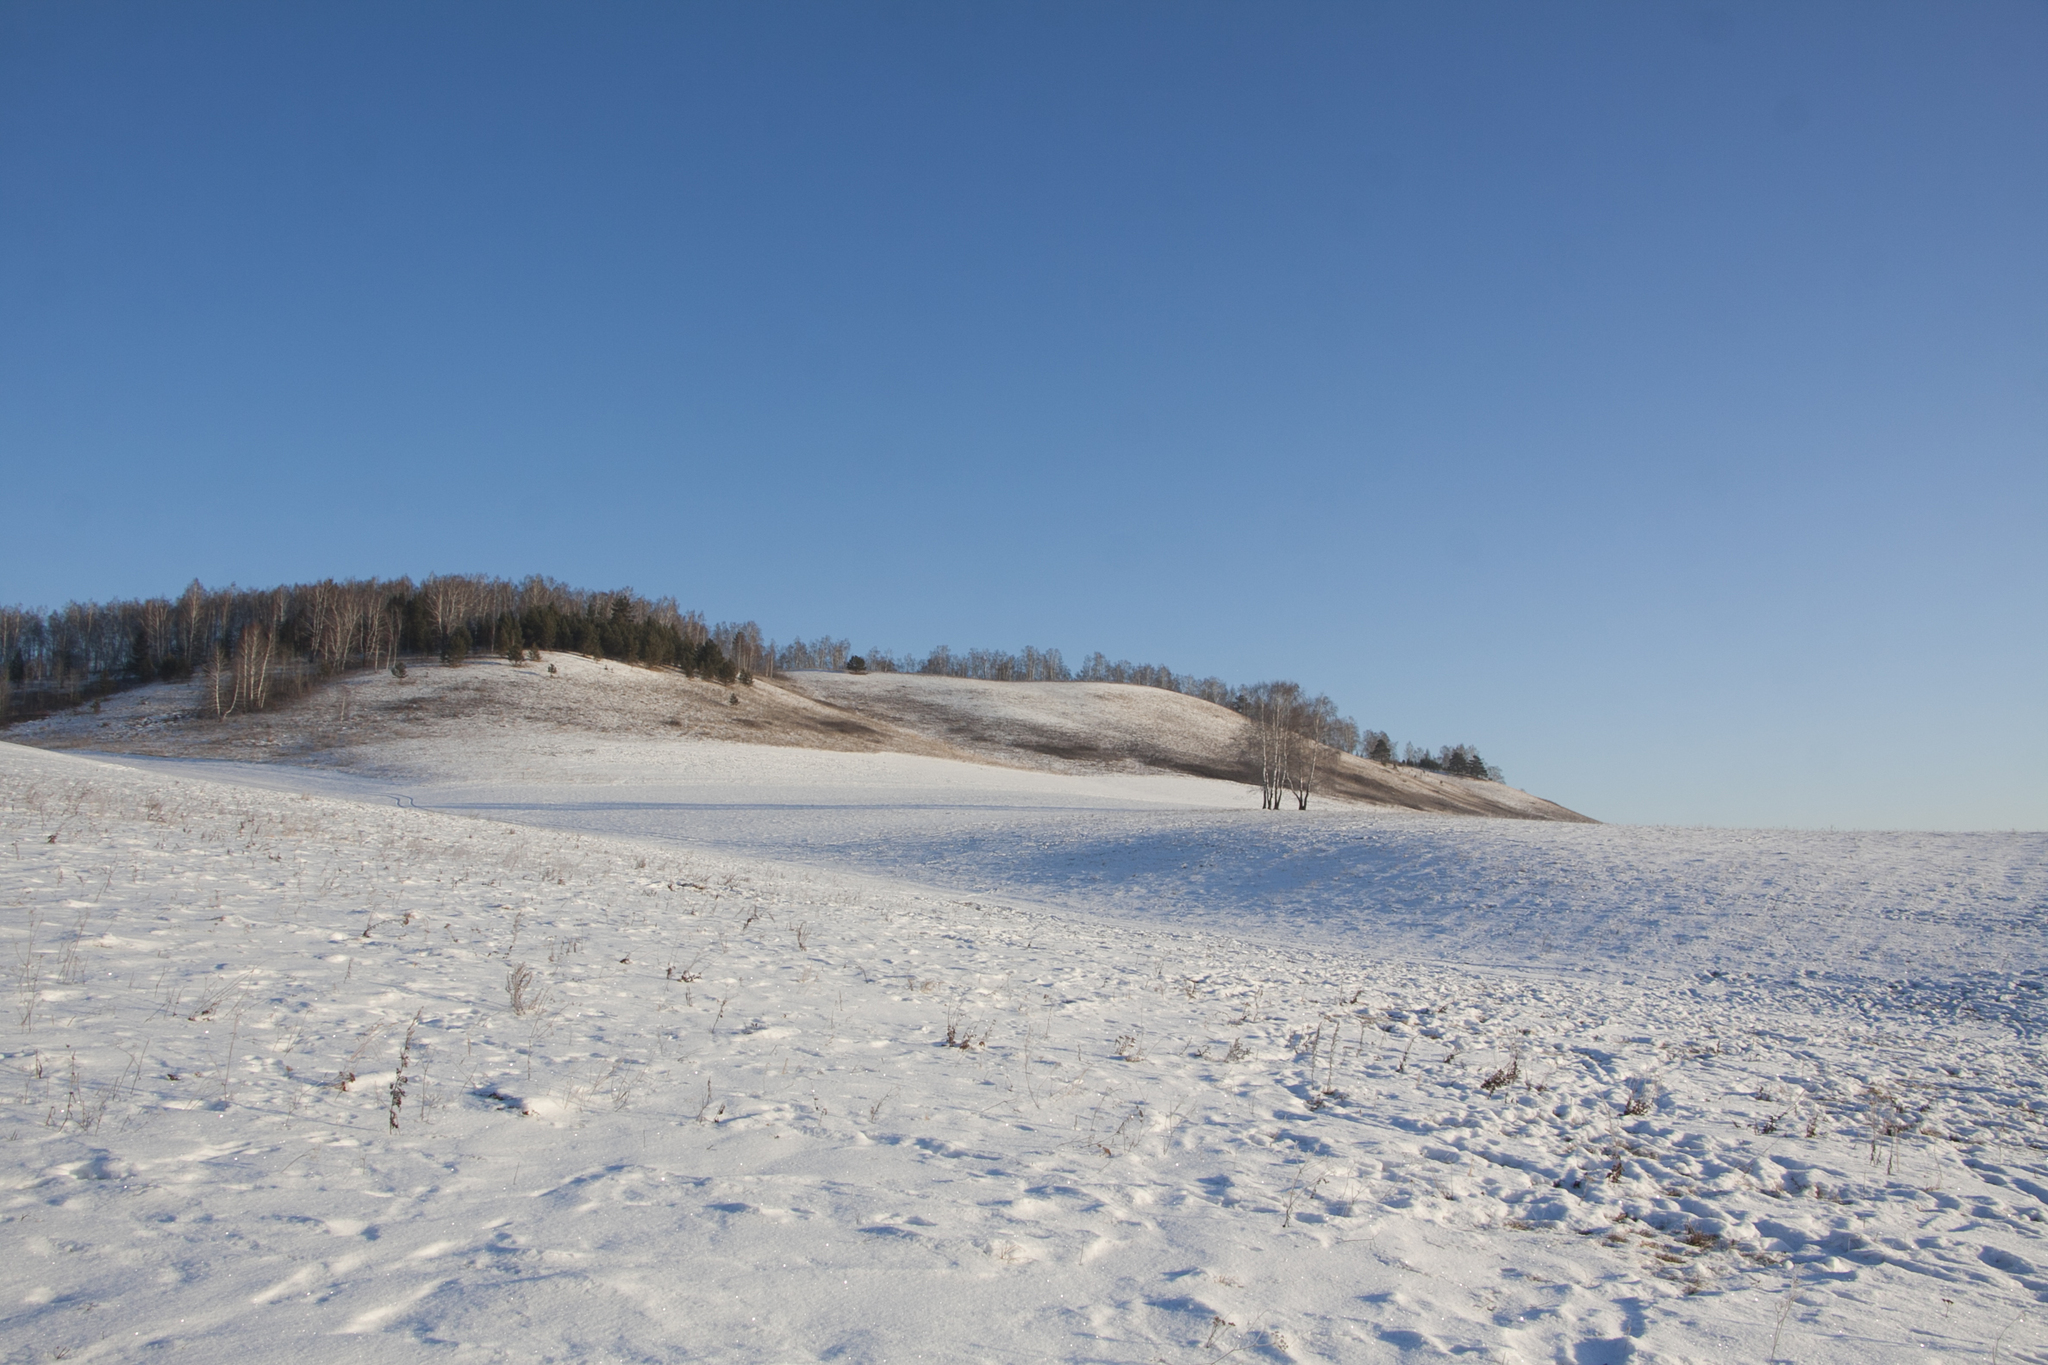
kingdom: Plantae
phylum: Tracheophyta
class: Pinopsida
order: Pinales
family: Pinaceae
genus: Pinus
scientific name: Pinus sylvestris
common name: Scots pine
